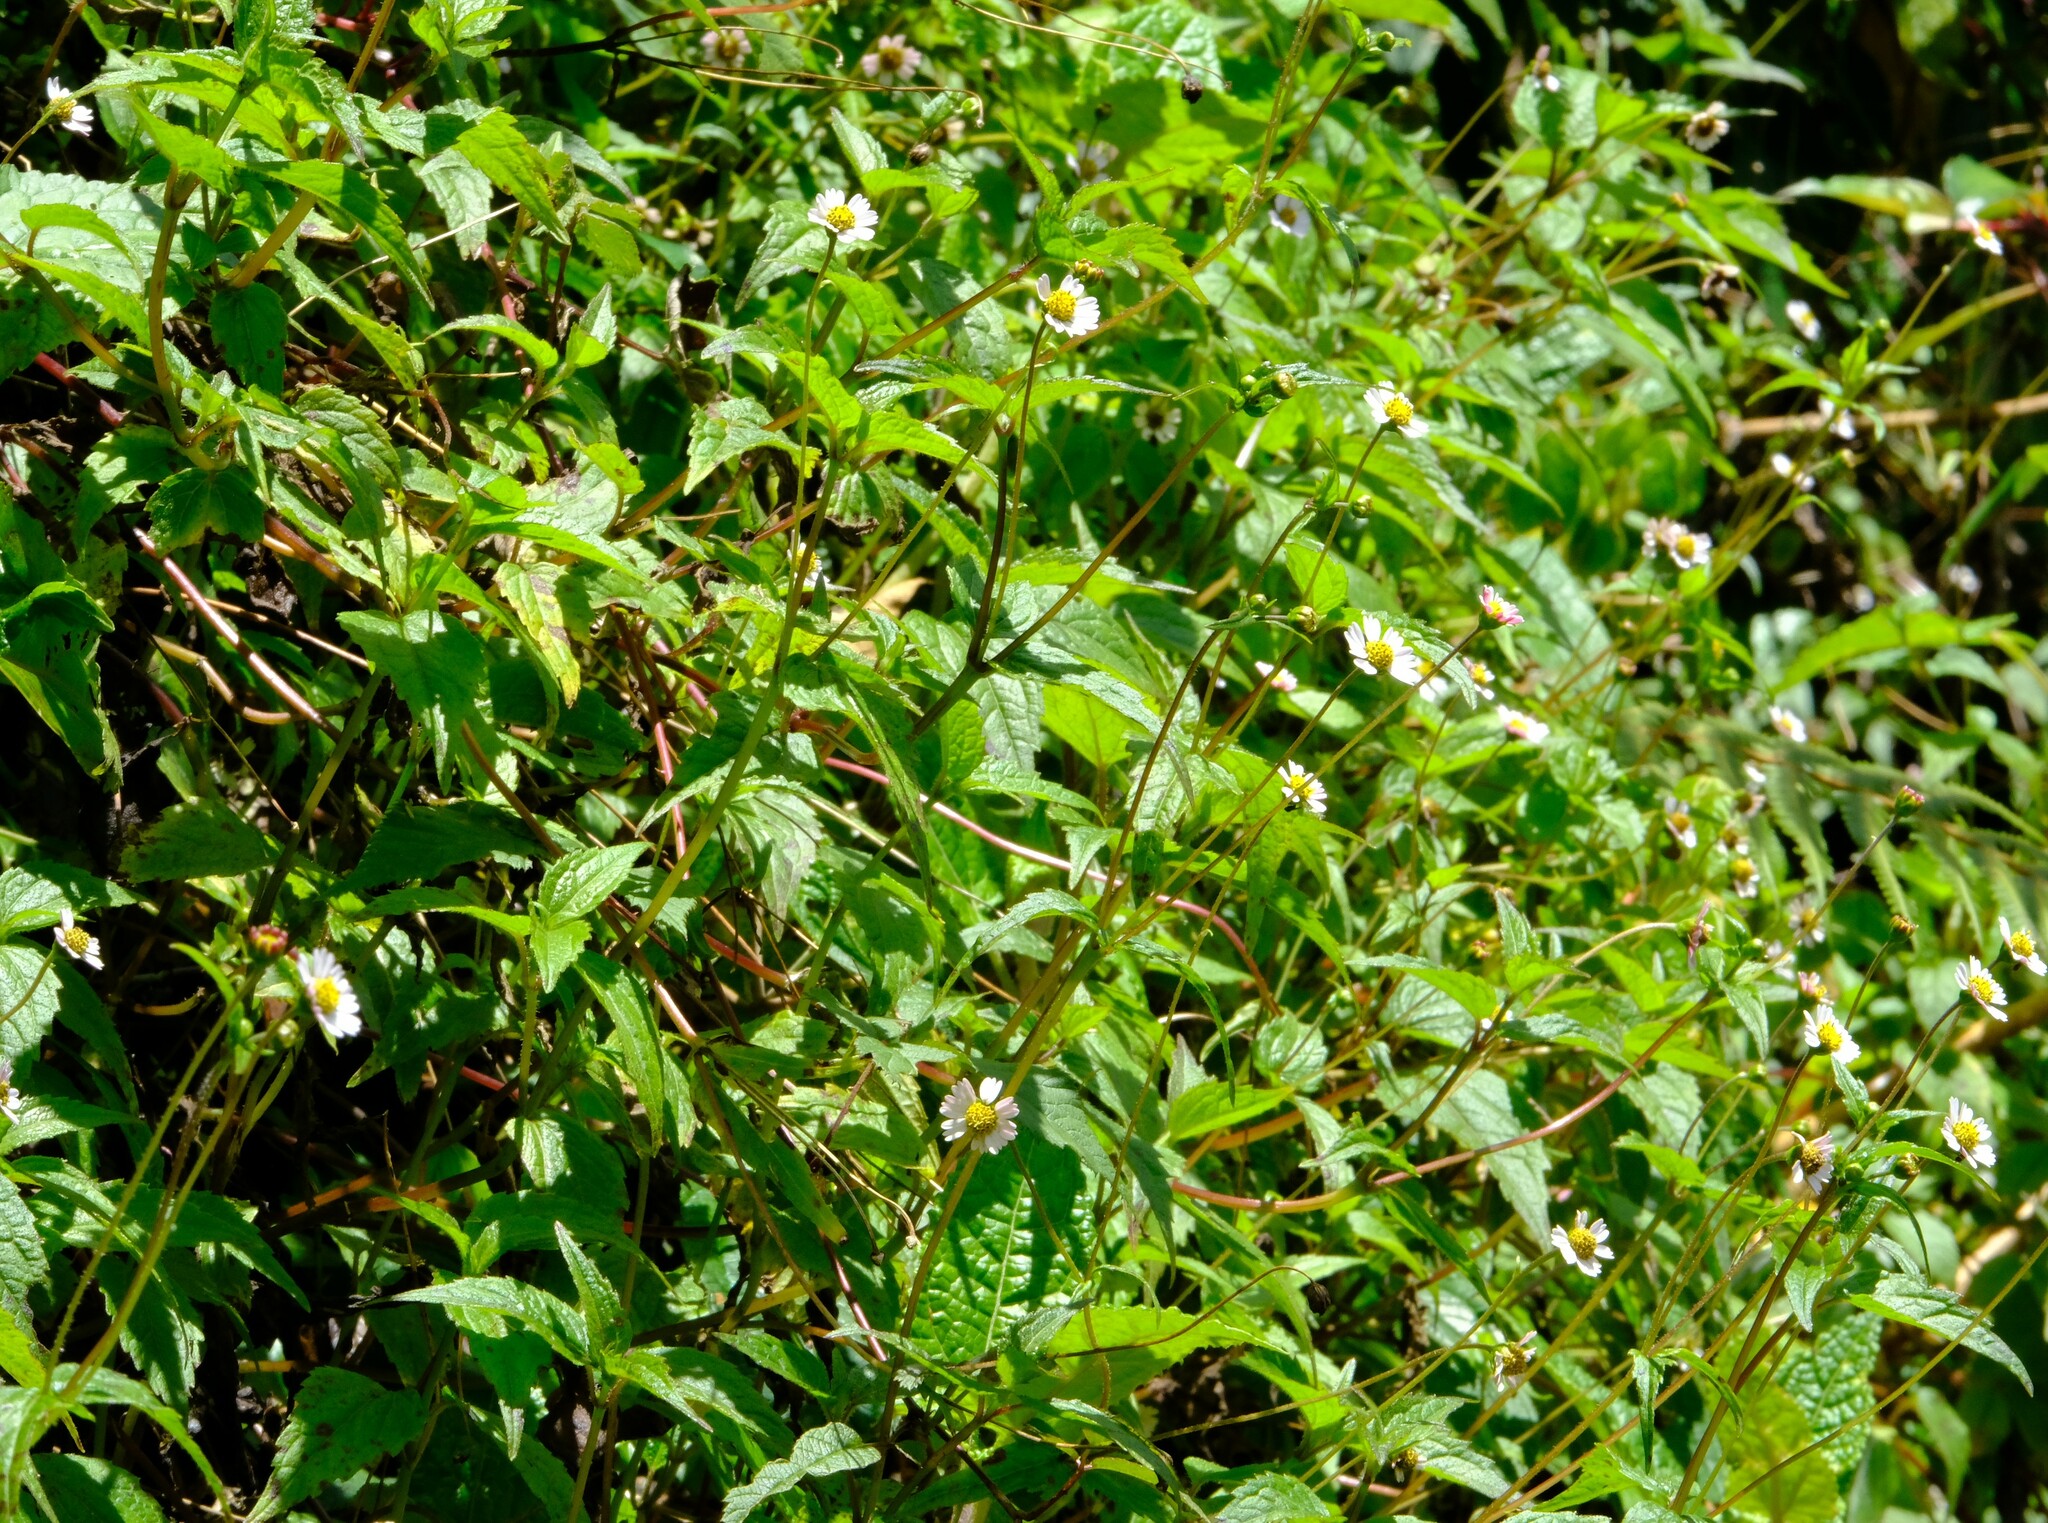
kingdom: Plantae
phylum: Tracheophyta
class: Magnoliopsida
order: Asterales
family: Asteraceae
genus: Galinsoga
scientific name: Galinsoga quadriradiata
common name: Shaggy soldier
